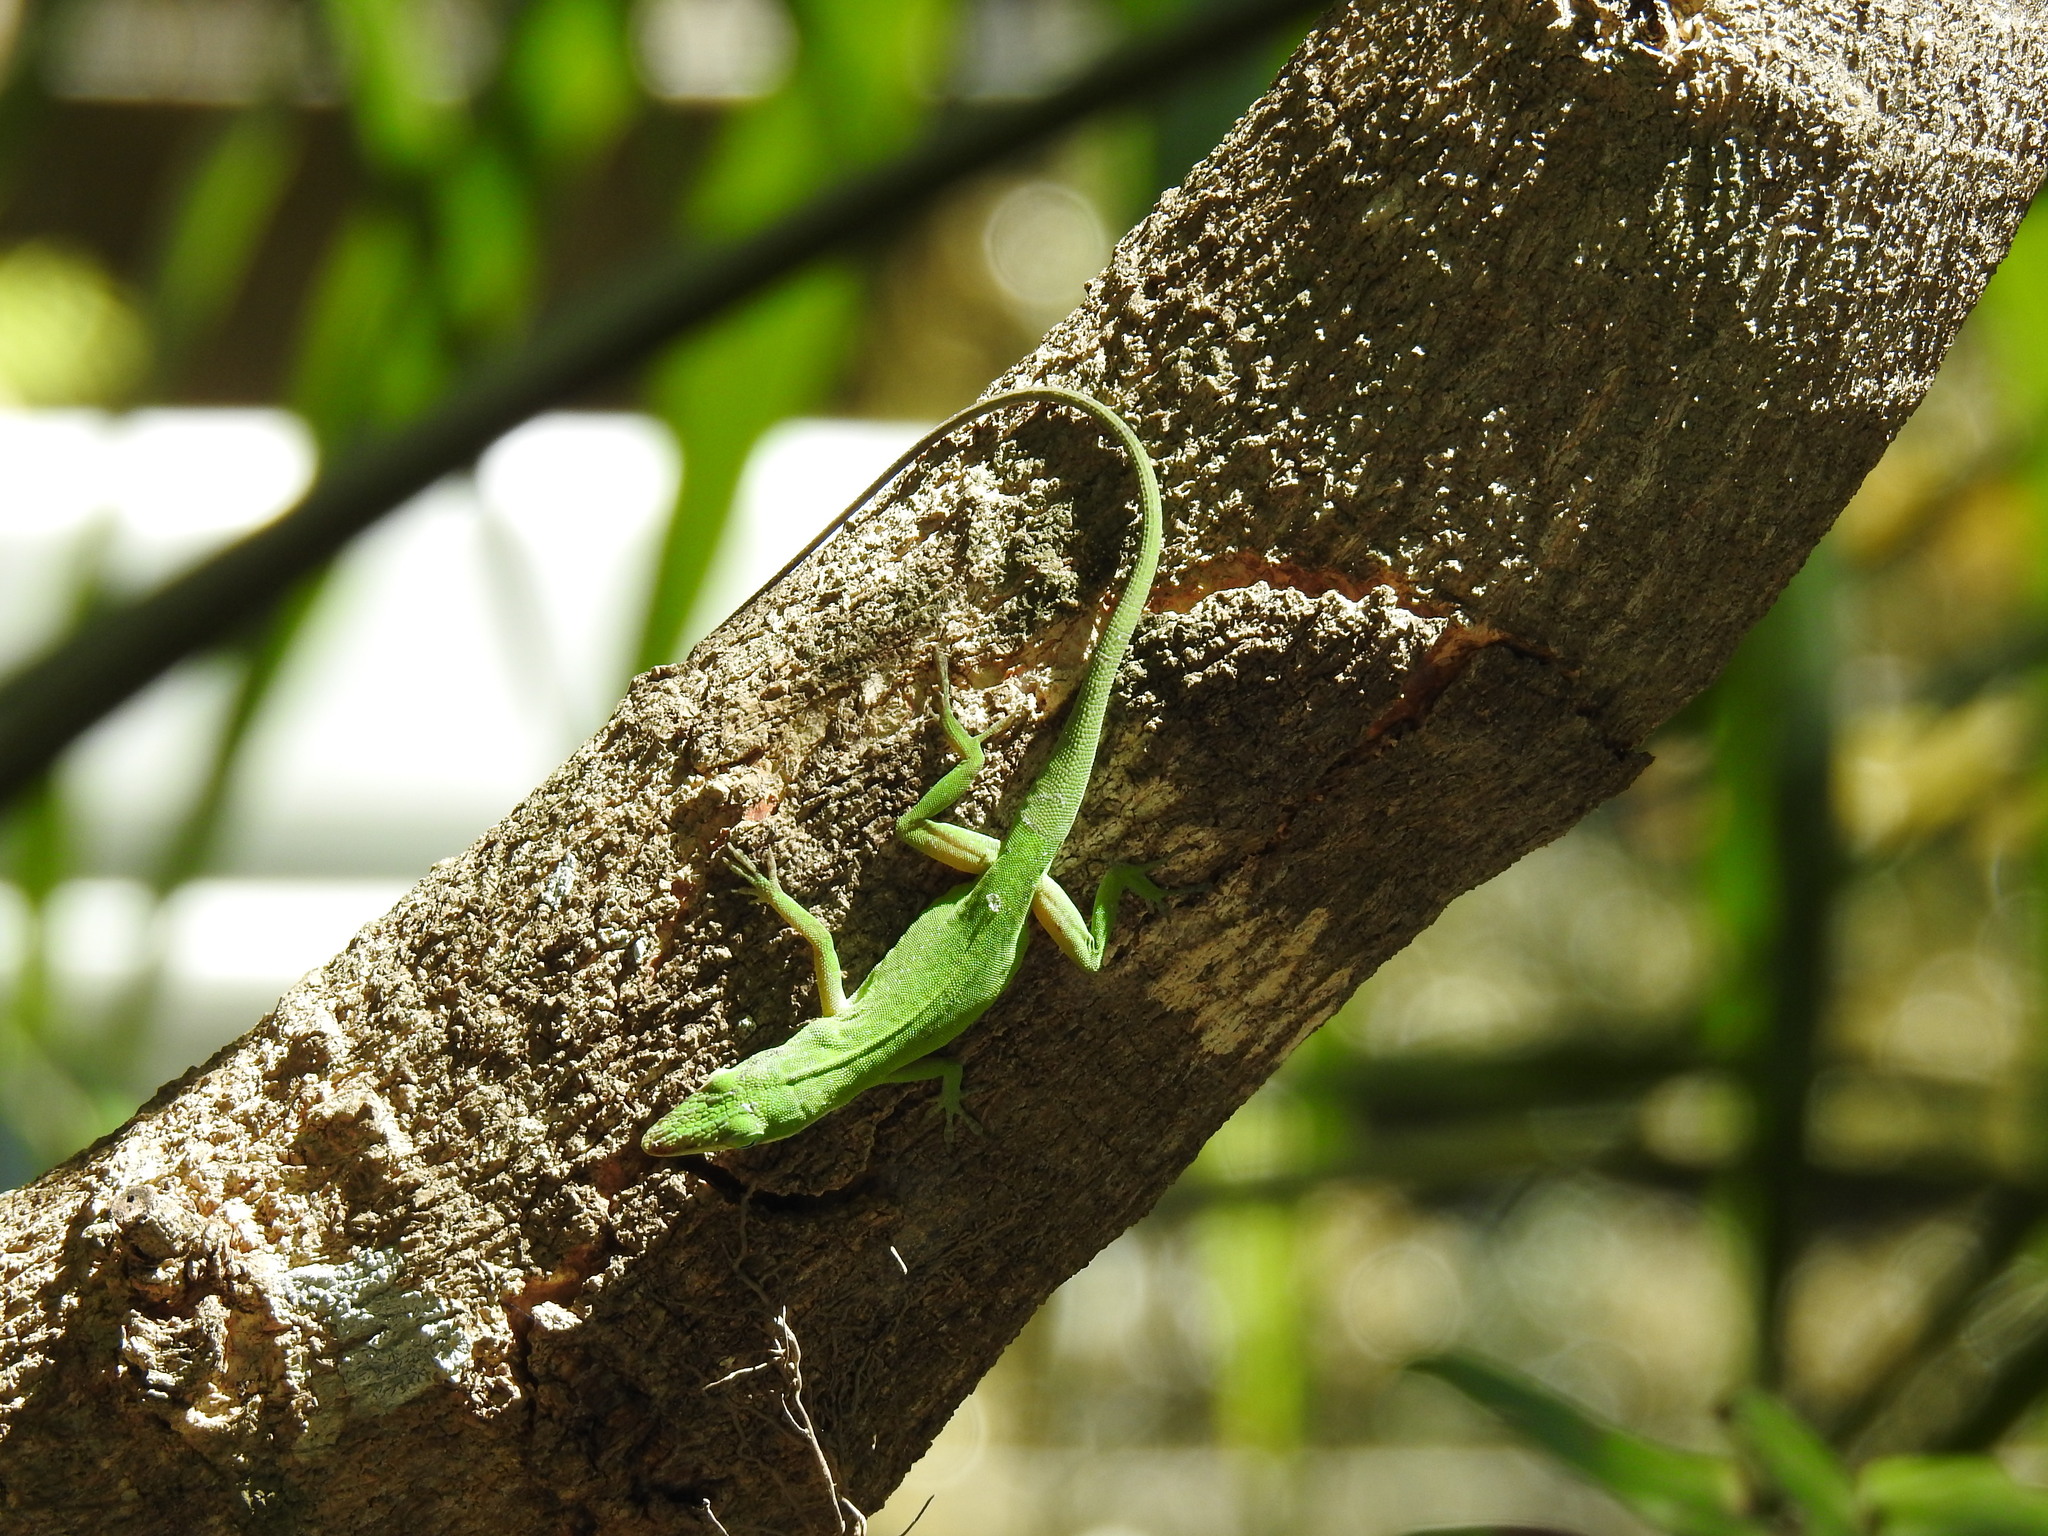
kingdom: Animalia
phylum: Chordata
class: Squamata
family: Dactyloidae
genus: Anolis
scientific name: Anolis carolinensis
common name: Green anole
